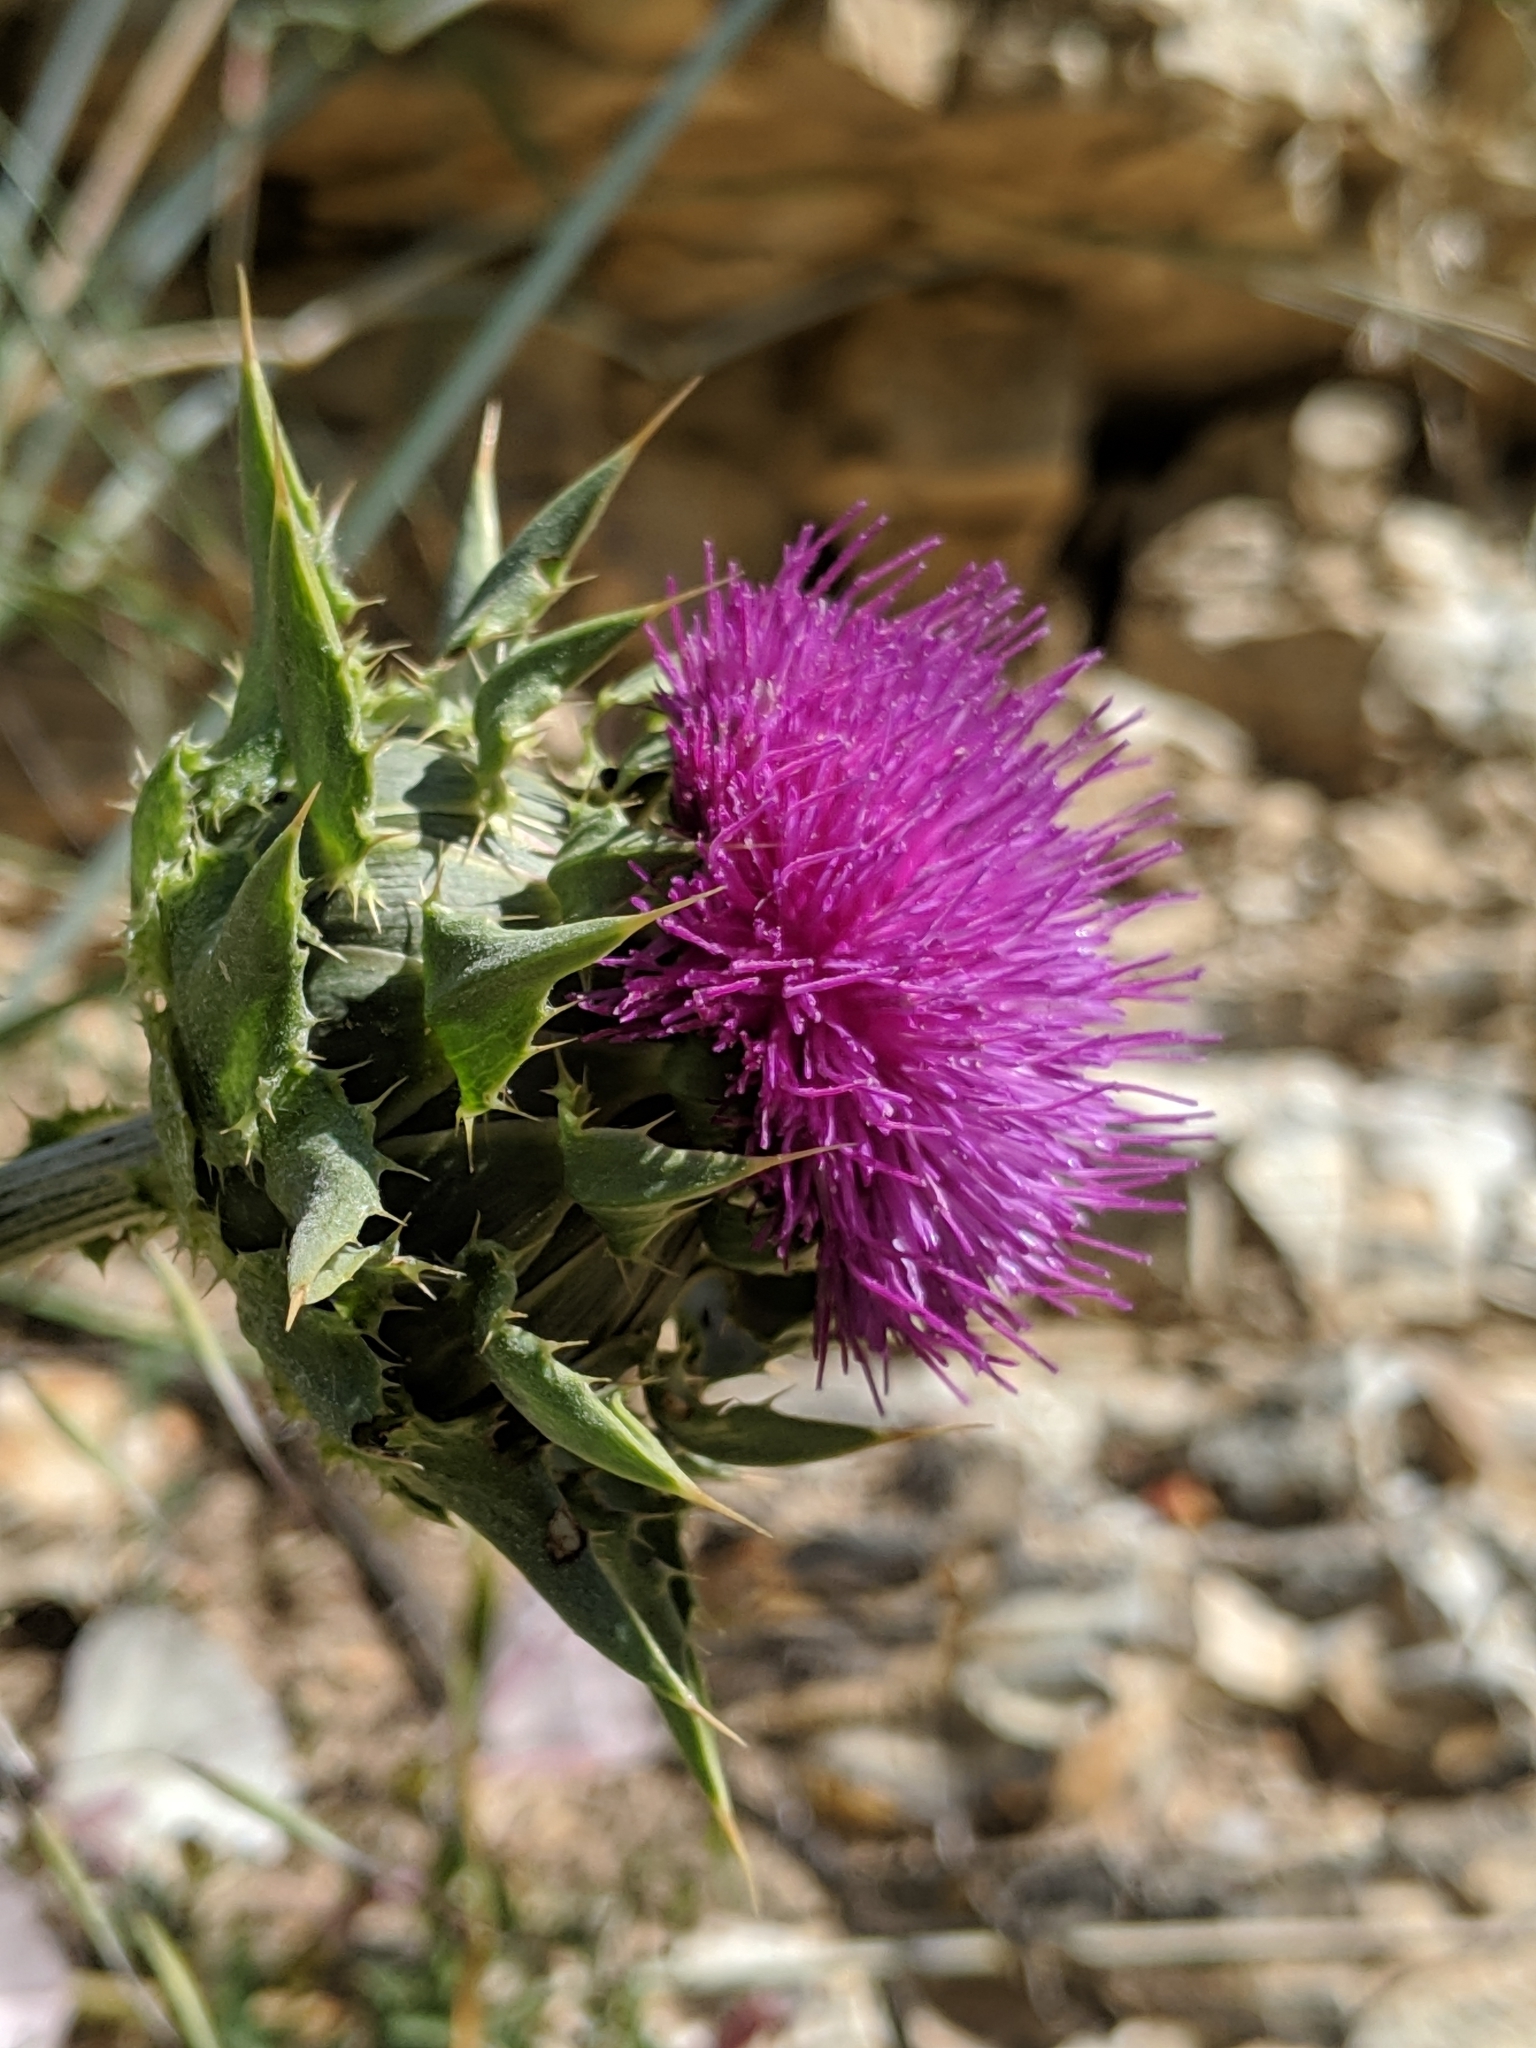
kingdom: Plantae
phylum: Tracheophyta
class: Magnoliopsida
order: Asterales
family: Asteraceae
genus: Silybum
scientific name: Silybum marianum
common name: Milk thistle
